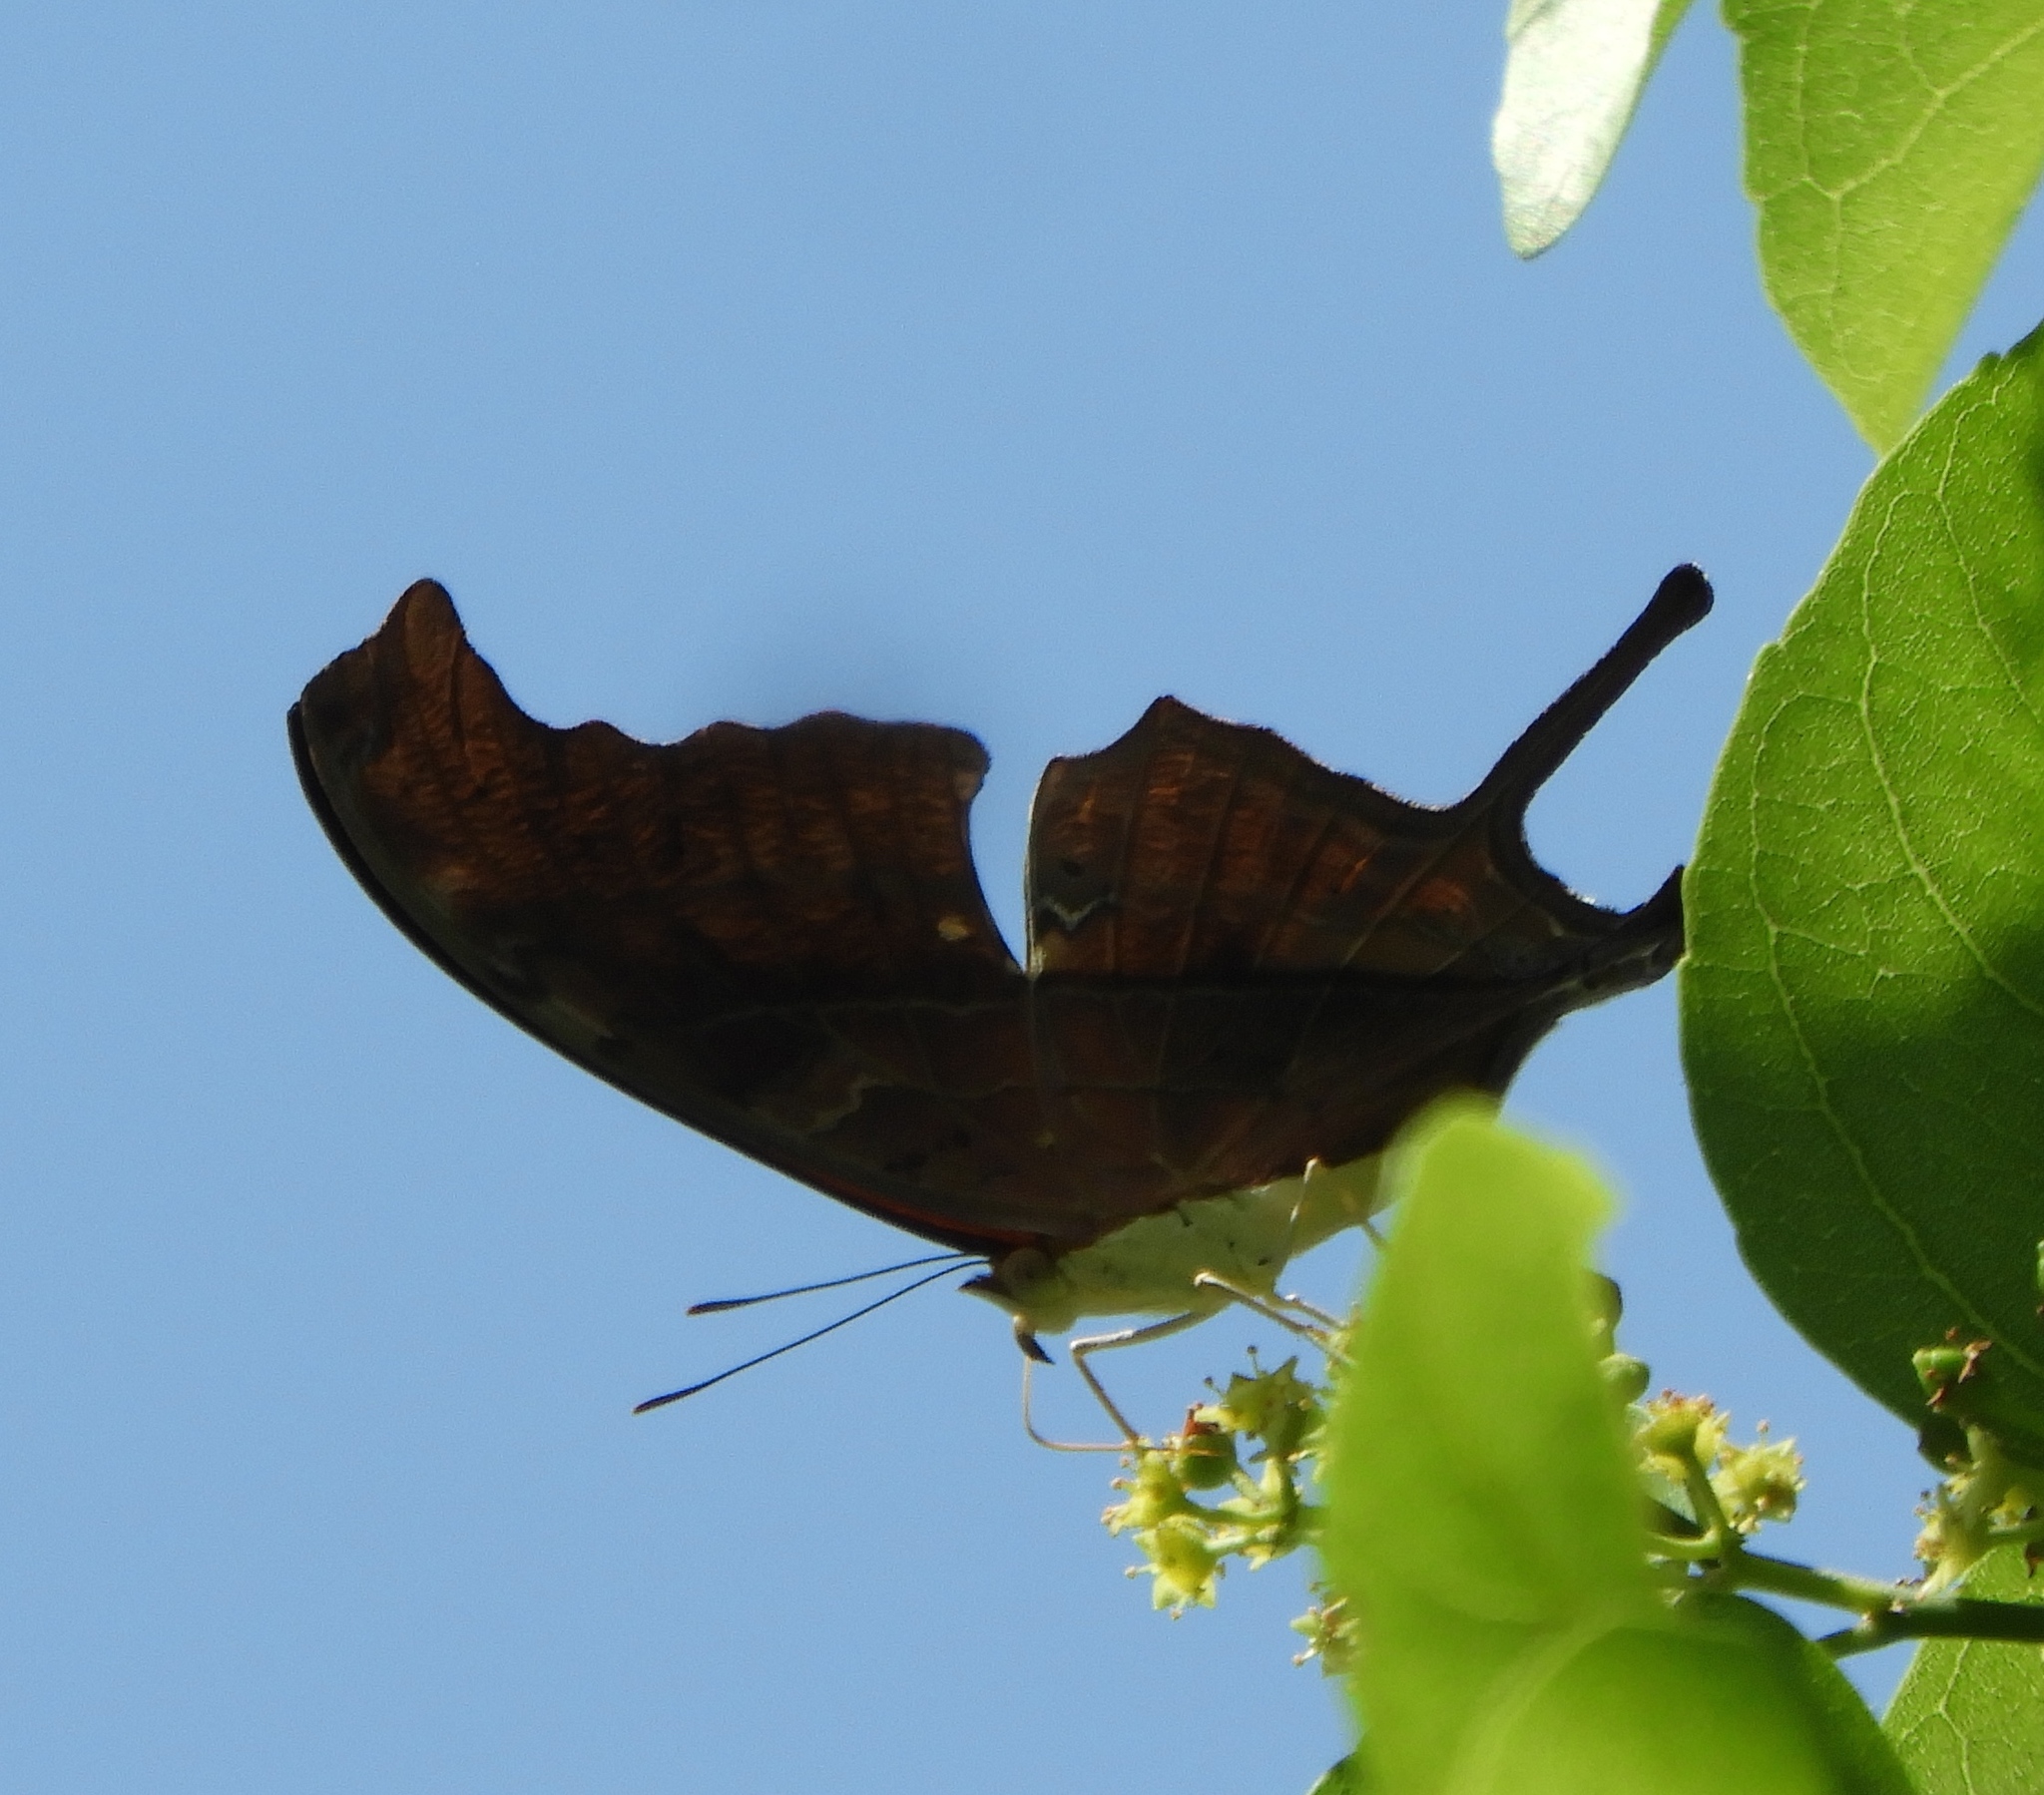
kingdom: Animalia
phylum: Arthropoda
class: Insecta
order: Lepidoptera
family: Nymphalidae
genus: Marpesia
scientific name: Marpesia petreus
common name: Red dagger wing
